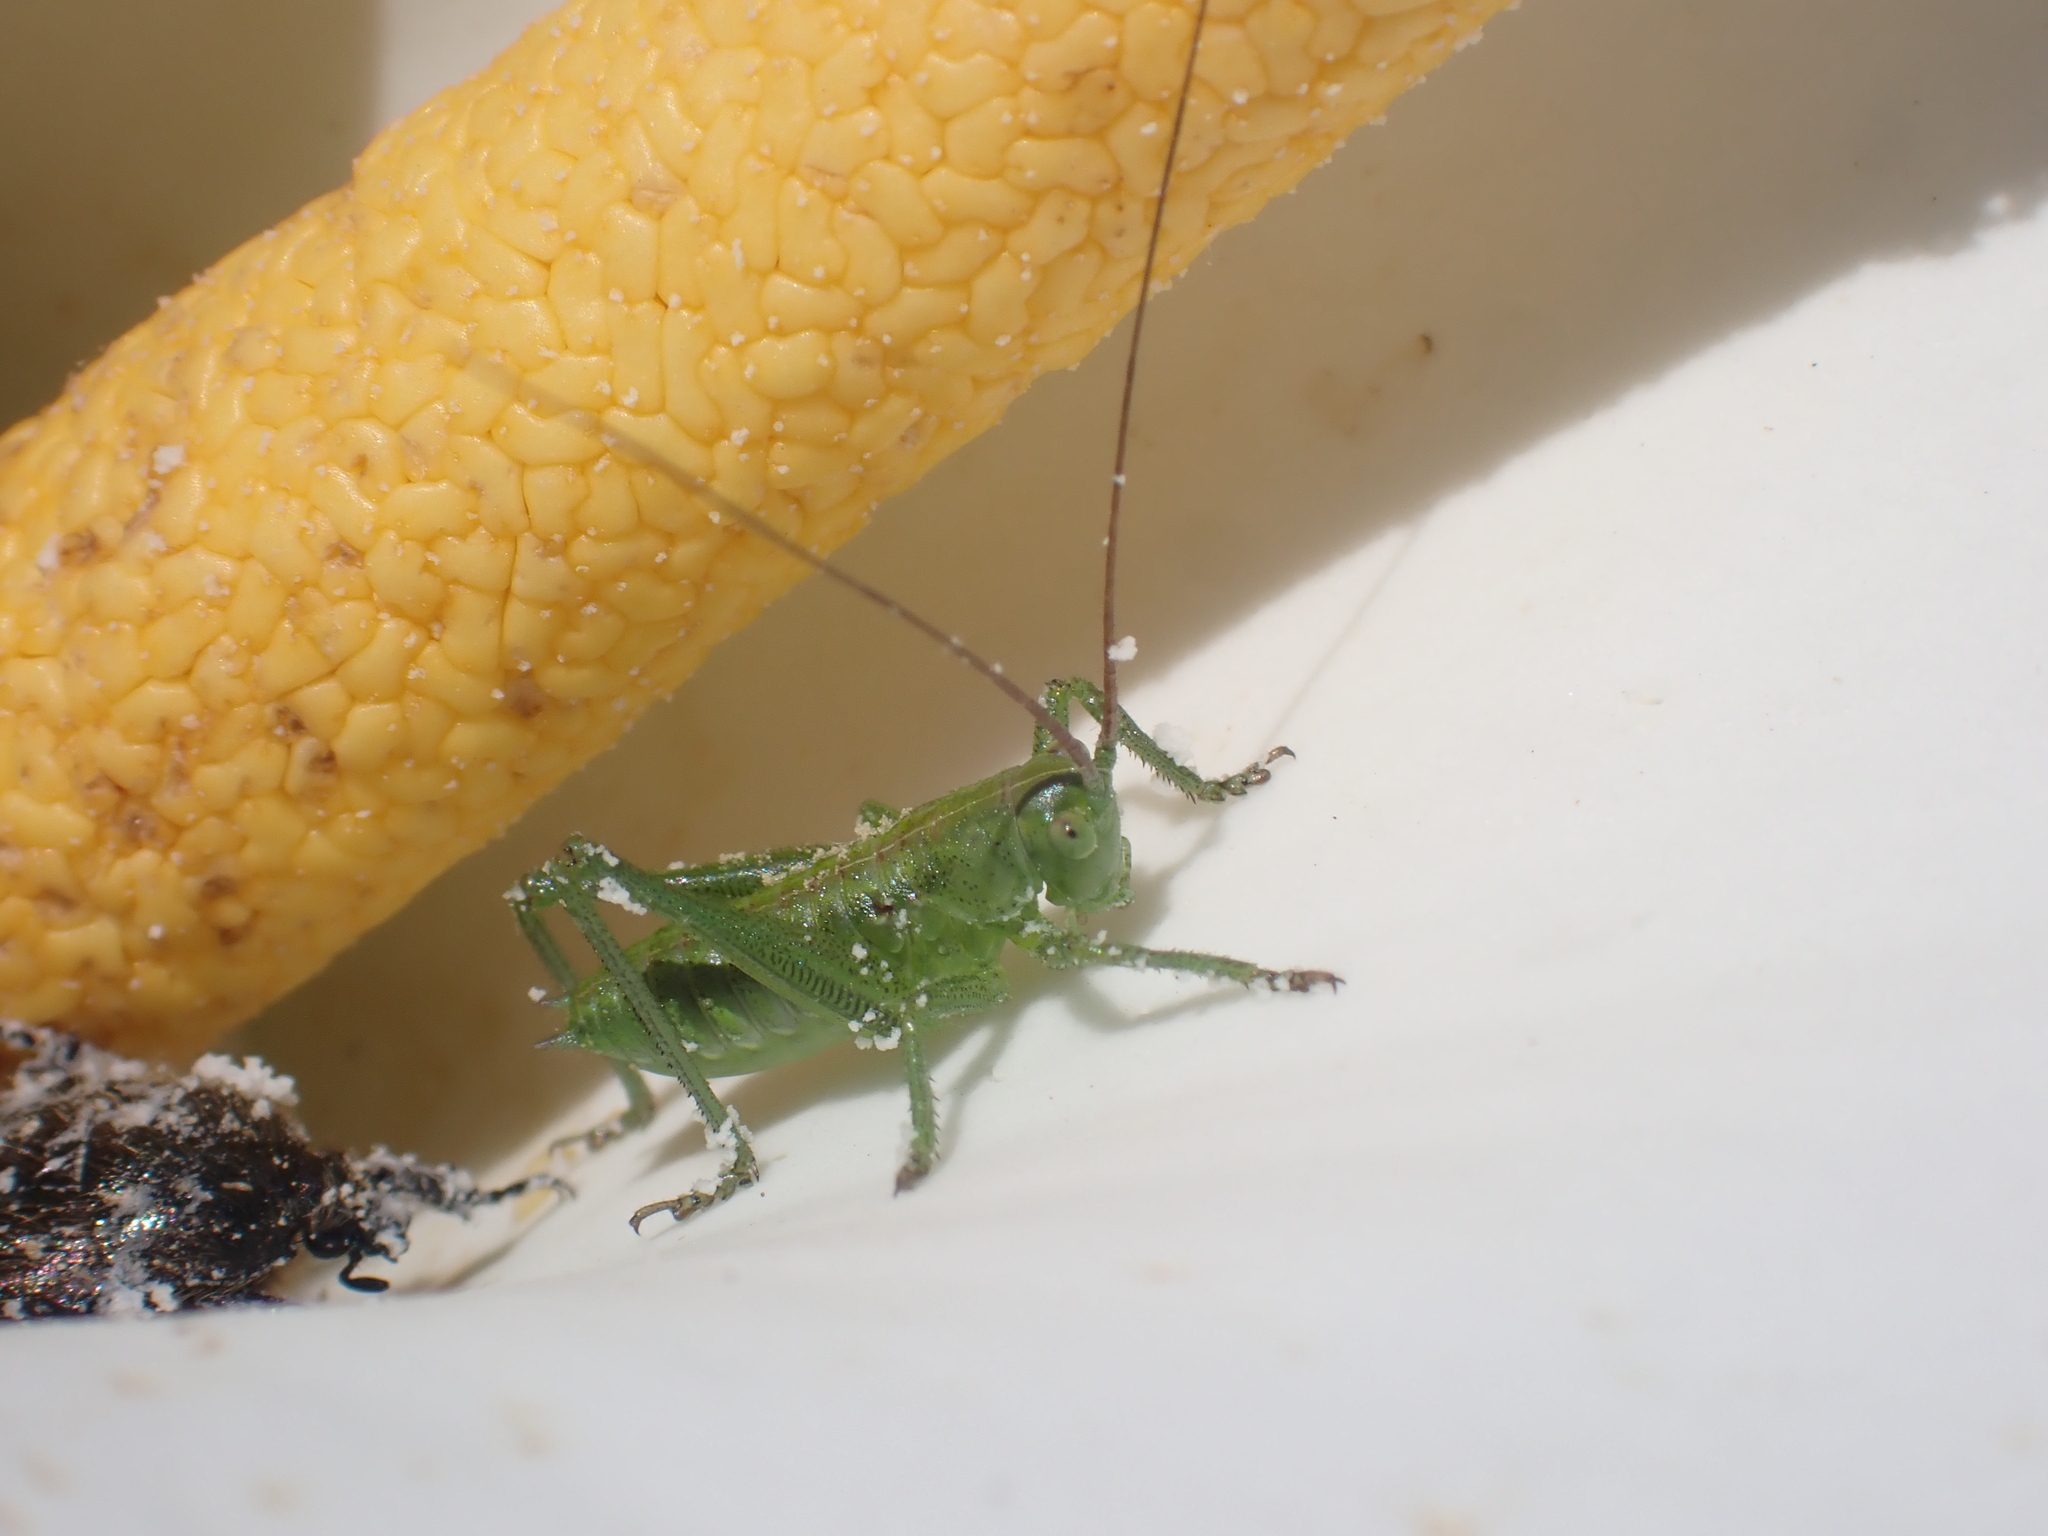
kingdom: Animalia
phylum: Arthropoda
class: Insecta
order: Orthoptera
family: Tettigoniidae
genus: Tettigonia
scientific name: Tettigonia viridissima
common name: Great green bush-cricket
